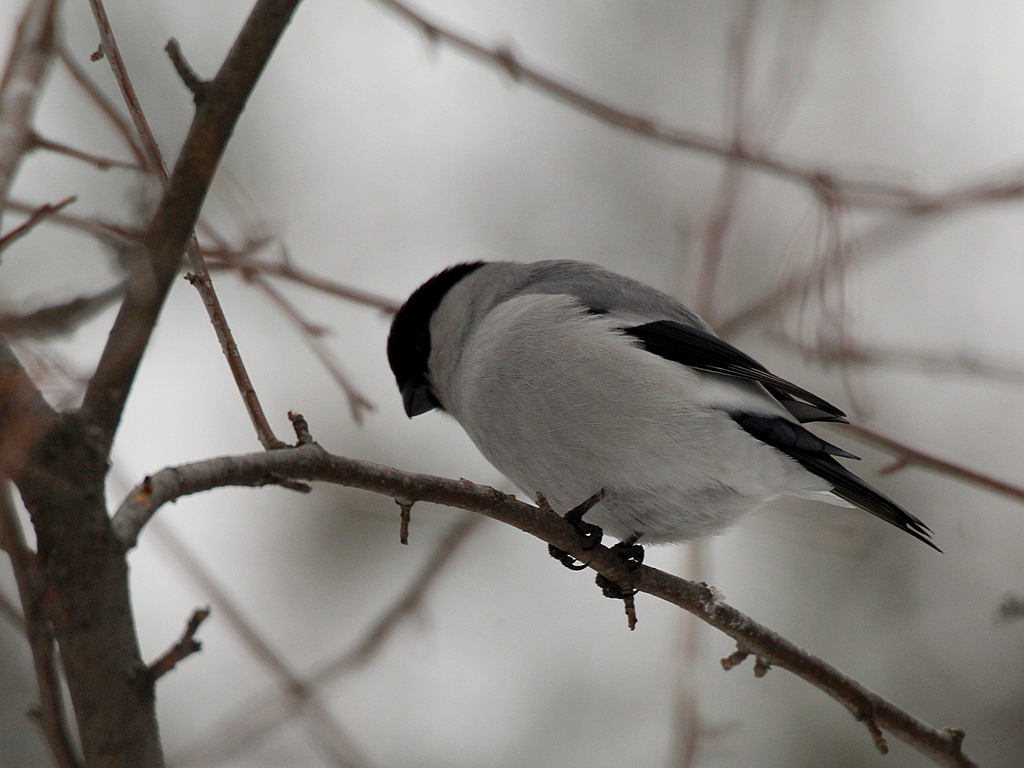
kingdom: Animalia
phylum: Chordata
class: Aves
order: Passeriformes
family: Fringillidae
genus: Pyrrhula
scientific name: Pyrrhula pyrrhula
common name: Eurasian bullfinch
